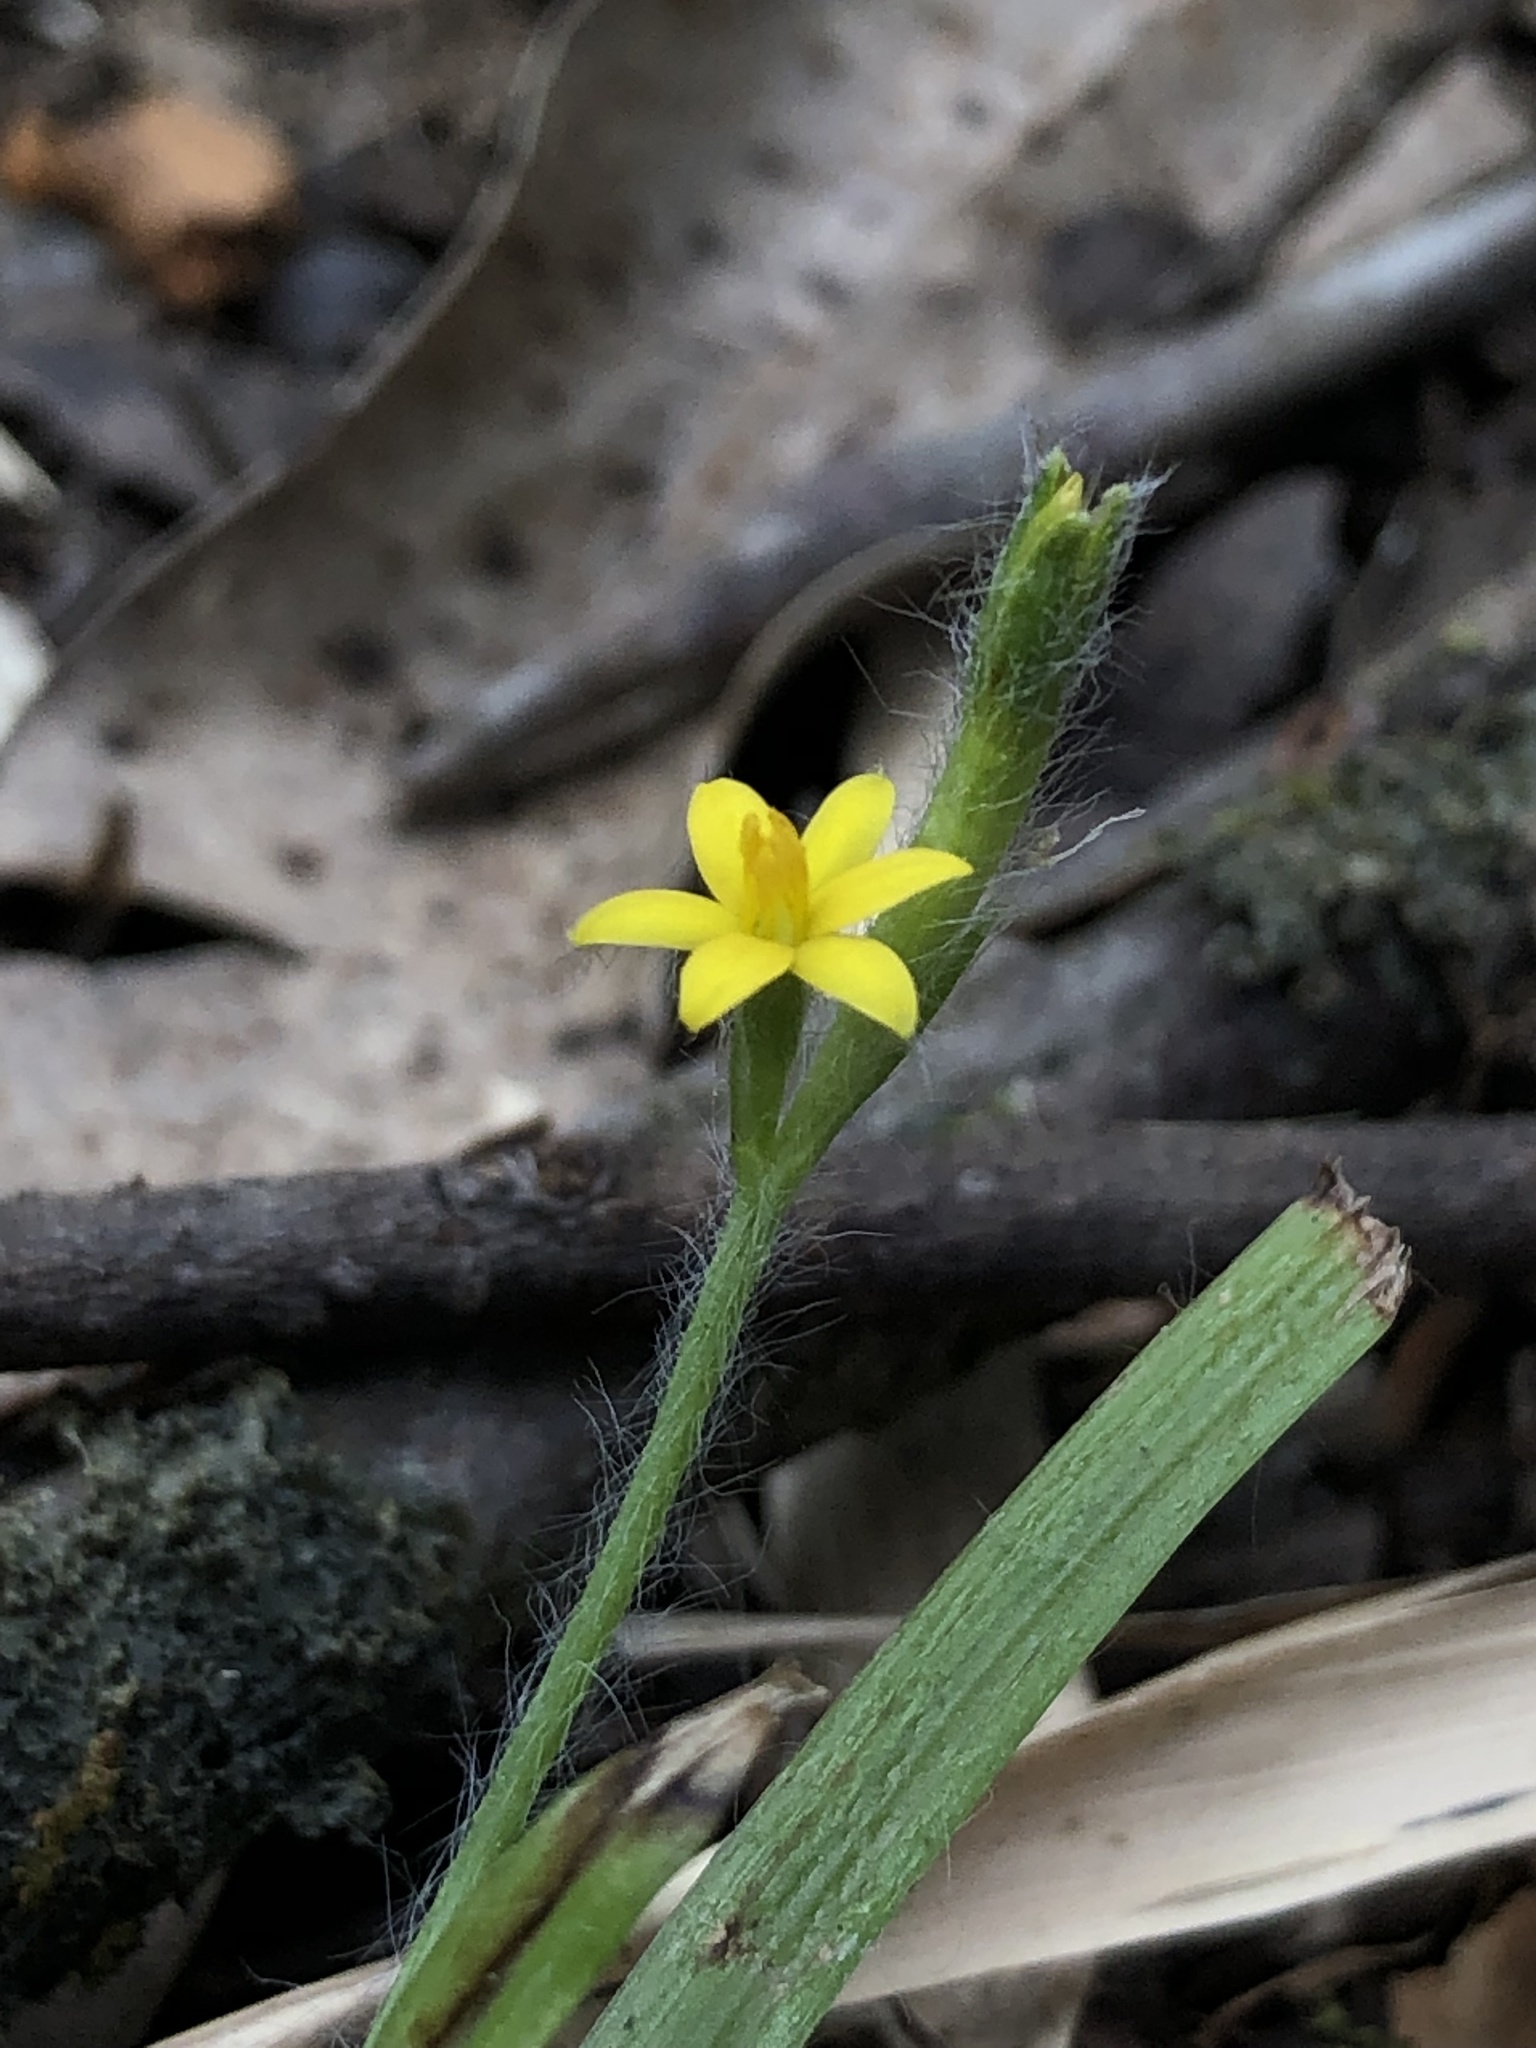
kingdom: Plantae
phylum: Tracheophyta
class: Liliopsida
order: Asparagales
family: Hypoxidaceae
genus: Hypoxis
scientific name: Hypoxis decumbens
